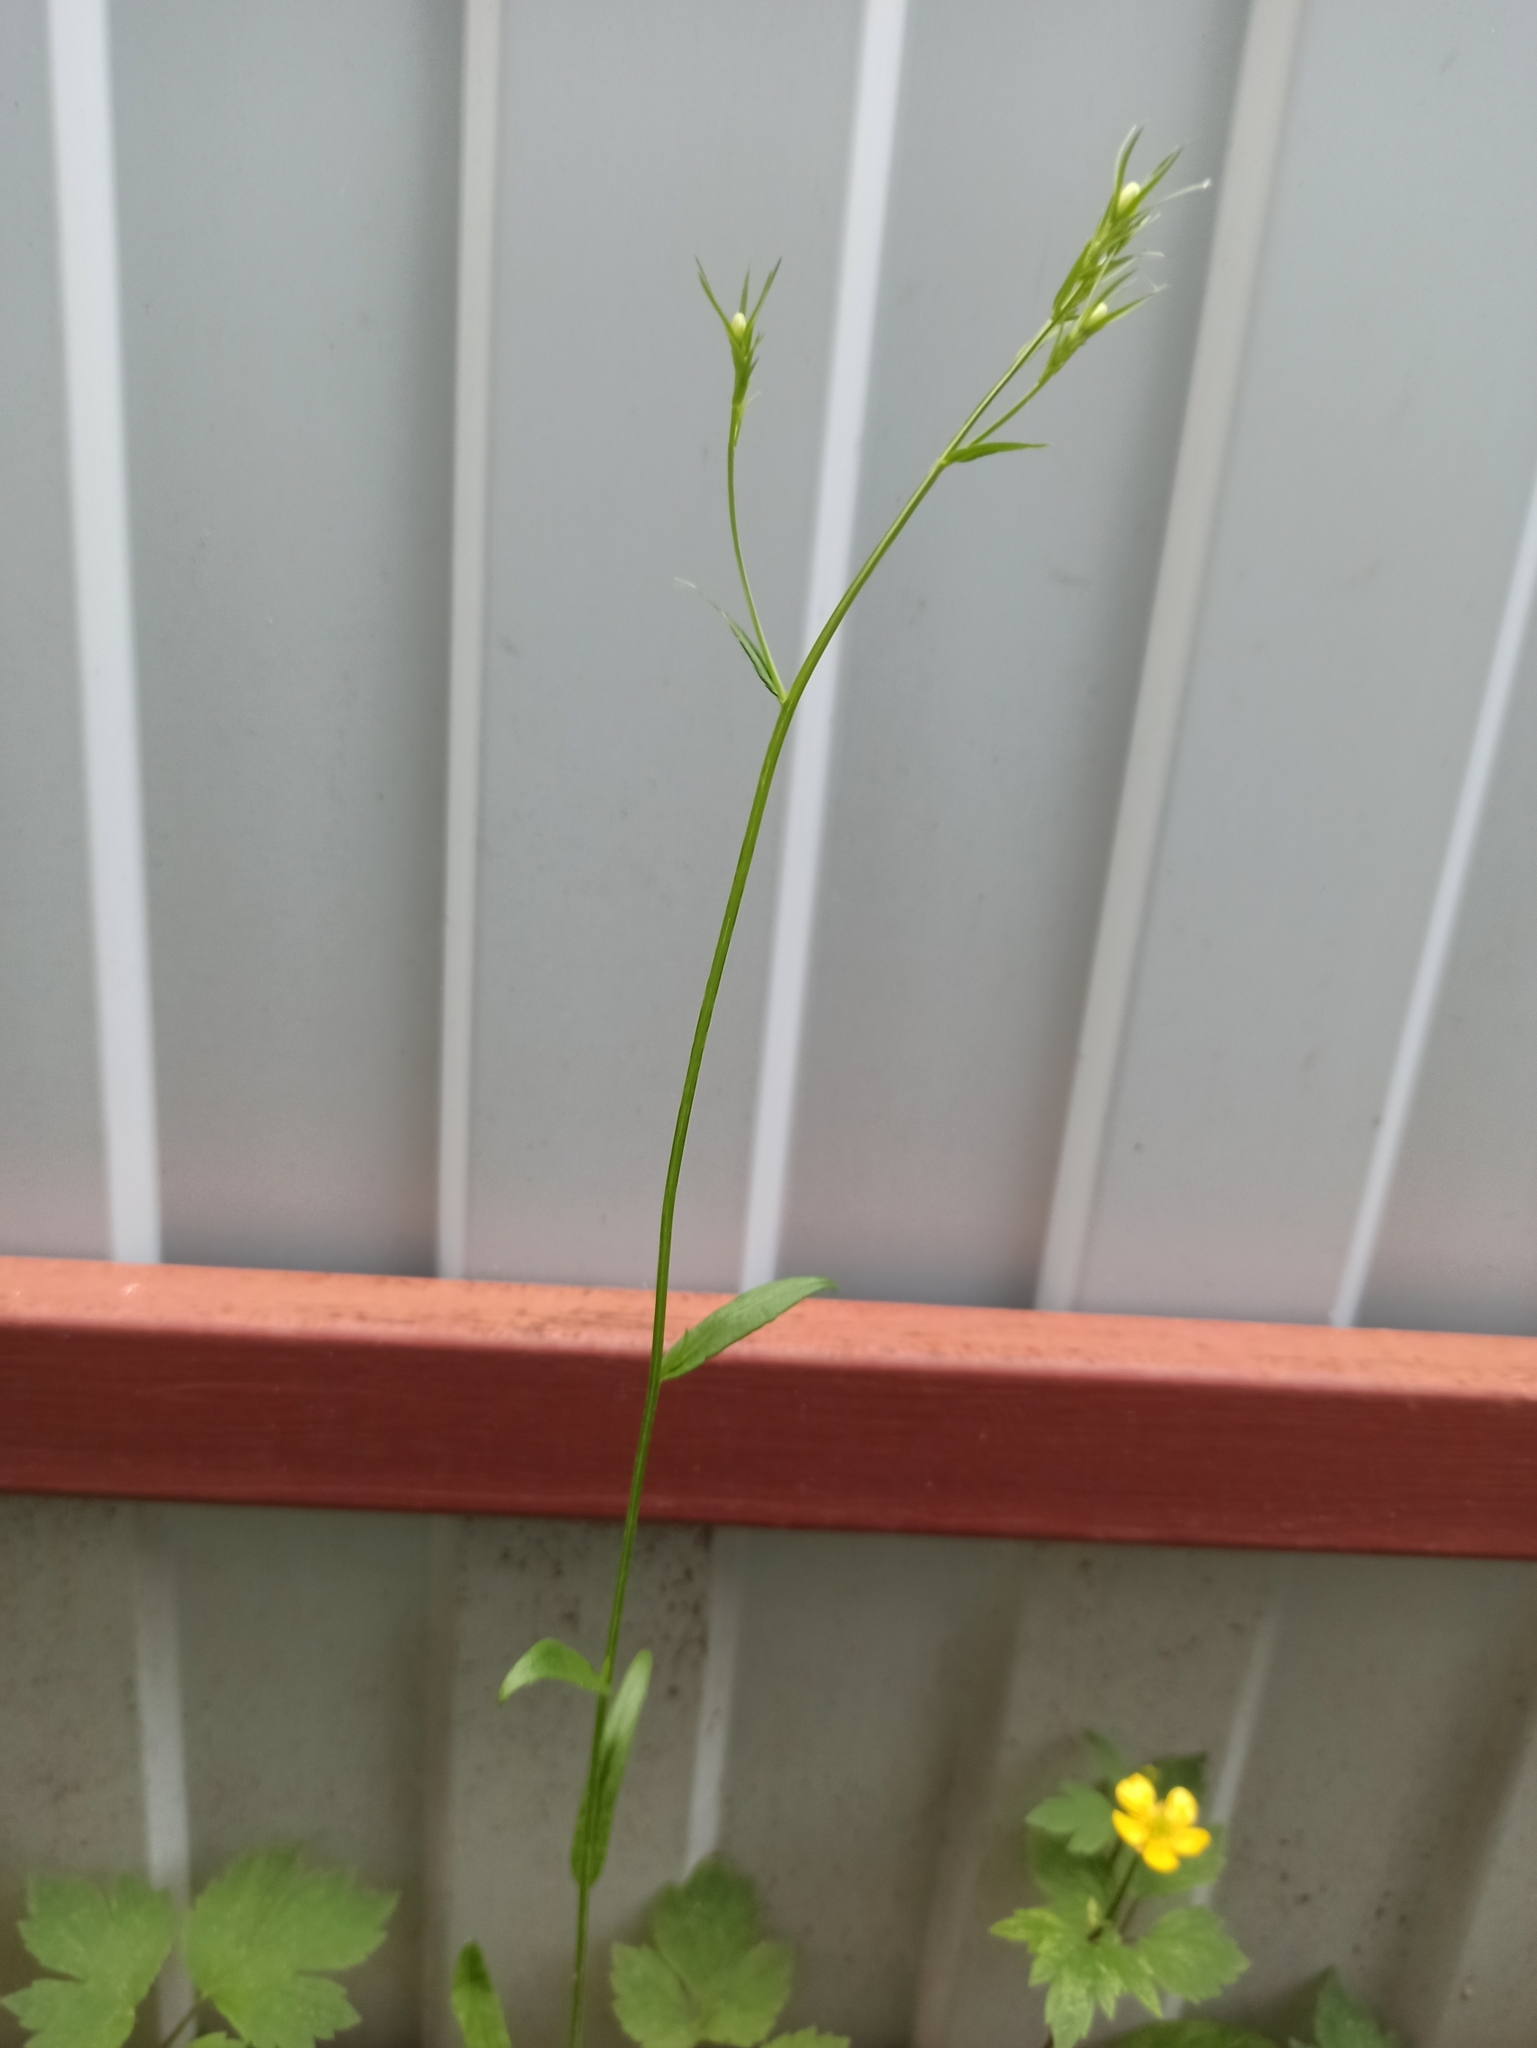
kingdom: Plantae
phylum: Tracheophyta
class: Magnoliopsida
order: Asterales
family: Campanulaceae
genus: Campanula
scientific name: Campanula patula
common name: Spreading bellflower
